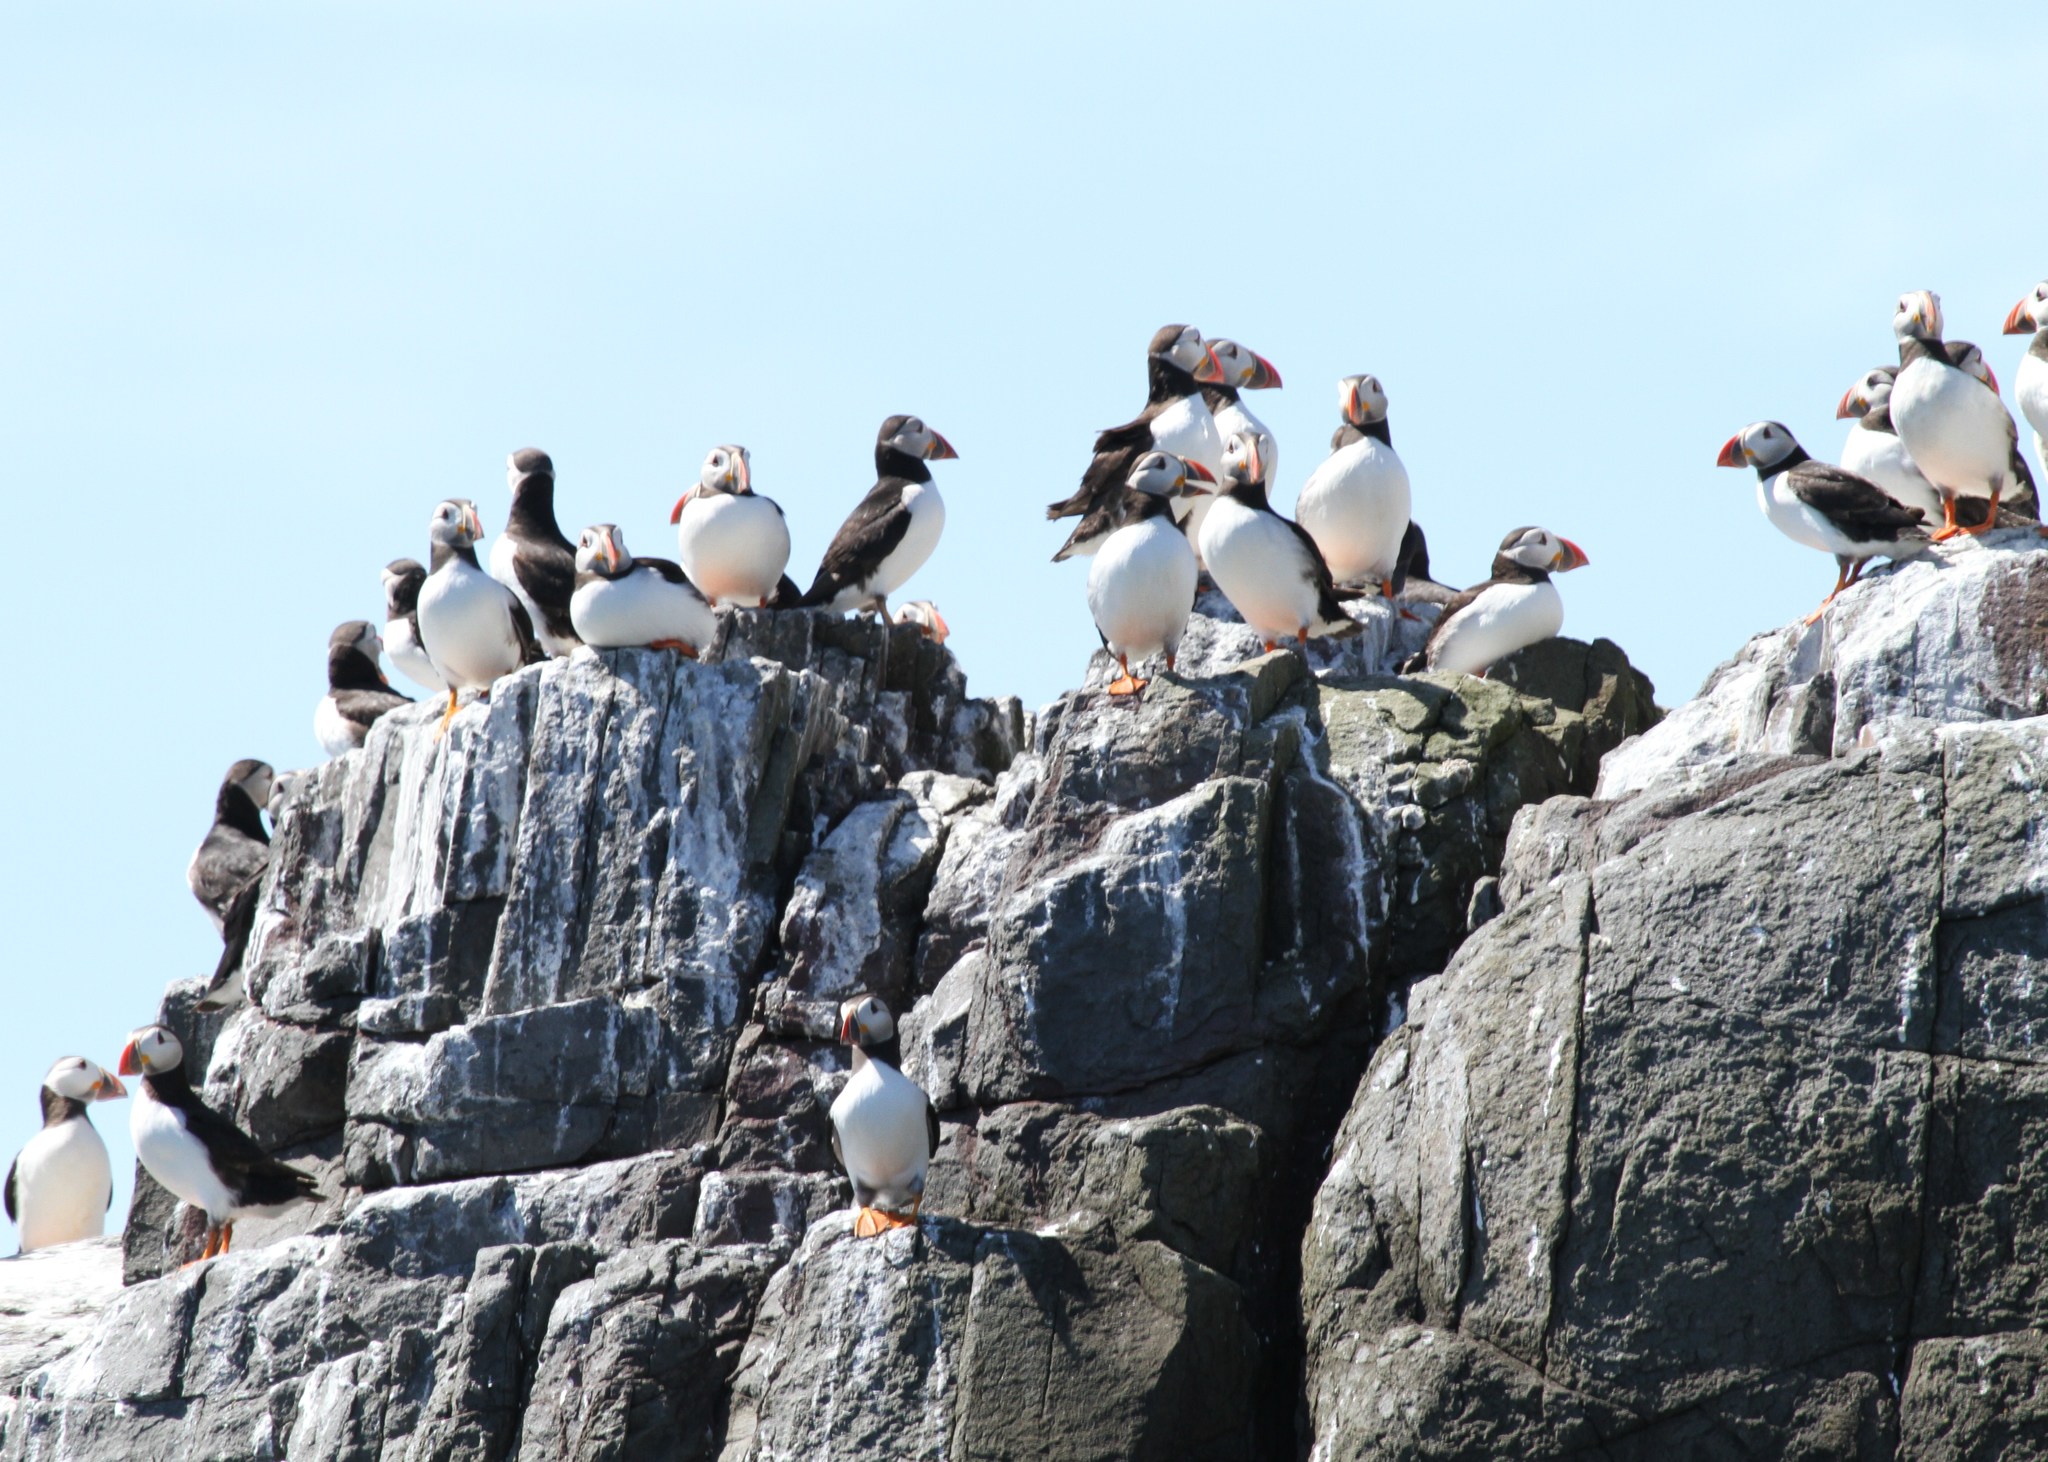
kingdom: Animalia
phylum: Chordata
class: Aves
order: Charadriiformes
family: Alcidae
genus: Fratercula
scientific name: Fratercula arctica
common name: Atlantic puffin
